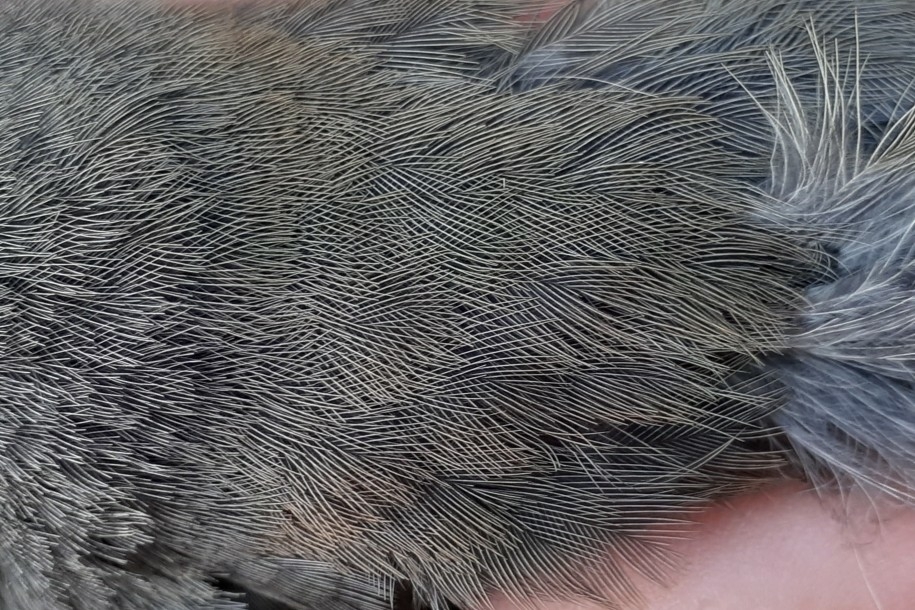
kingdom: Animalia
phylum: Chordata
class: Aves
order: Passeriformes
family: Passerellidae
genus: Junco
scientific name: Junco hyemalis
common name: Dark-eyed junco
